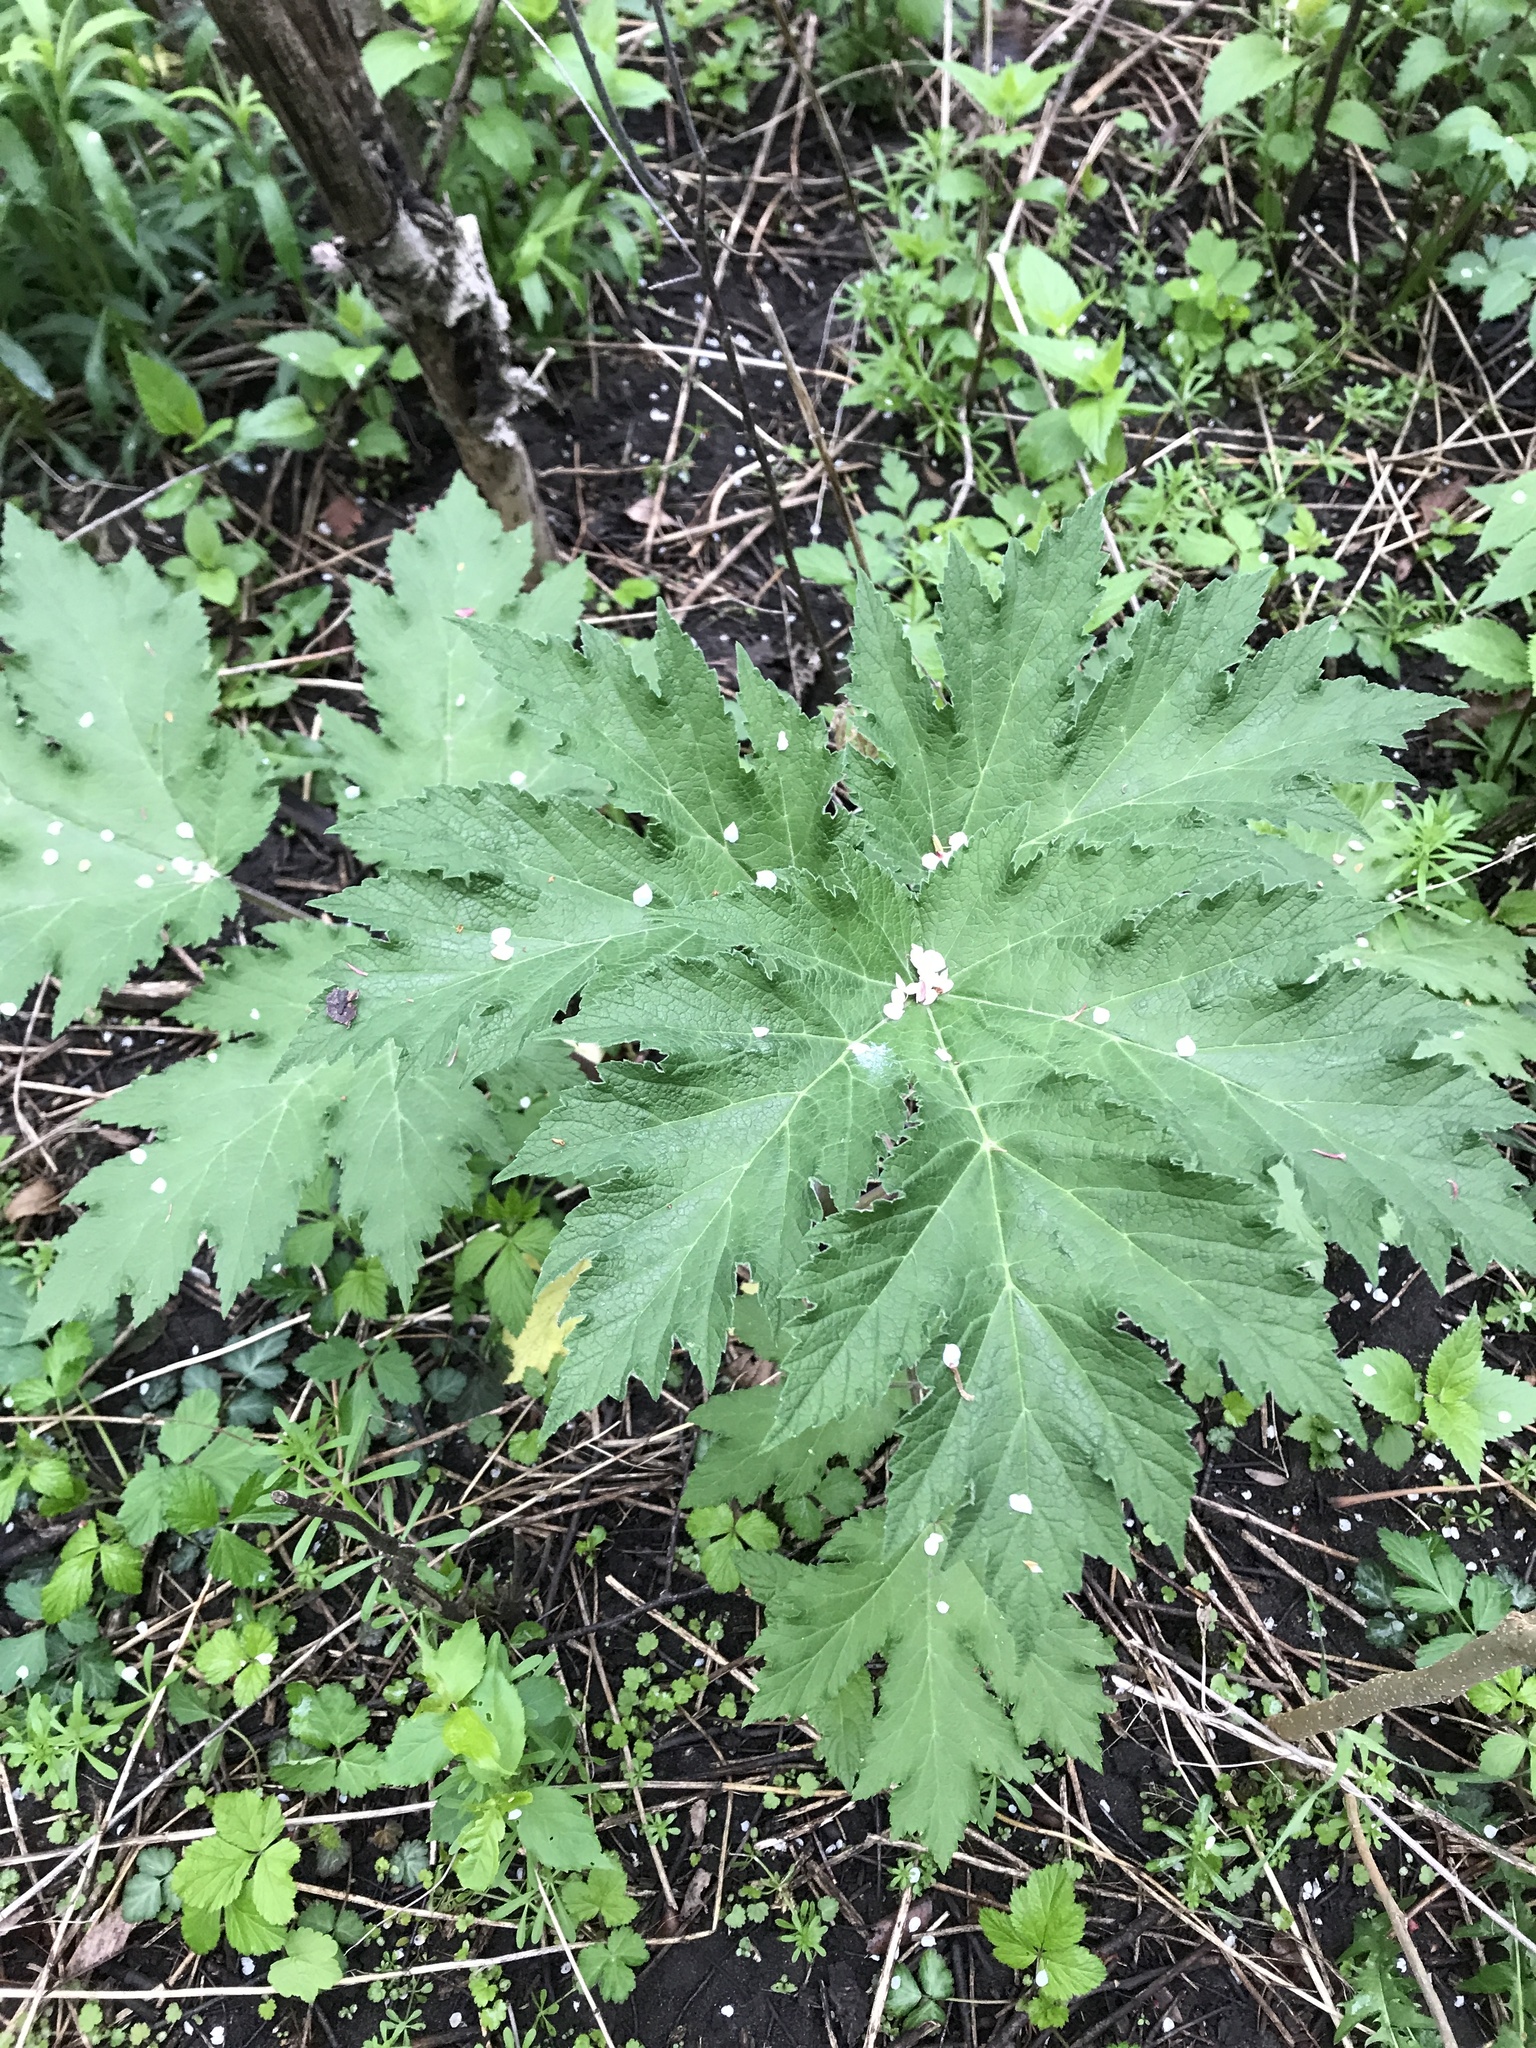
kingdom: Plantae
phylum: Tracheophyta
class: Magnoliopsida
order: Apiales
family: Apiaceae
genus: Heracleum
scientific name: Heracleum maximum
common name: American cow parsnip
